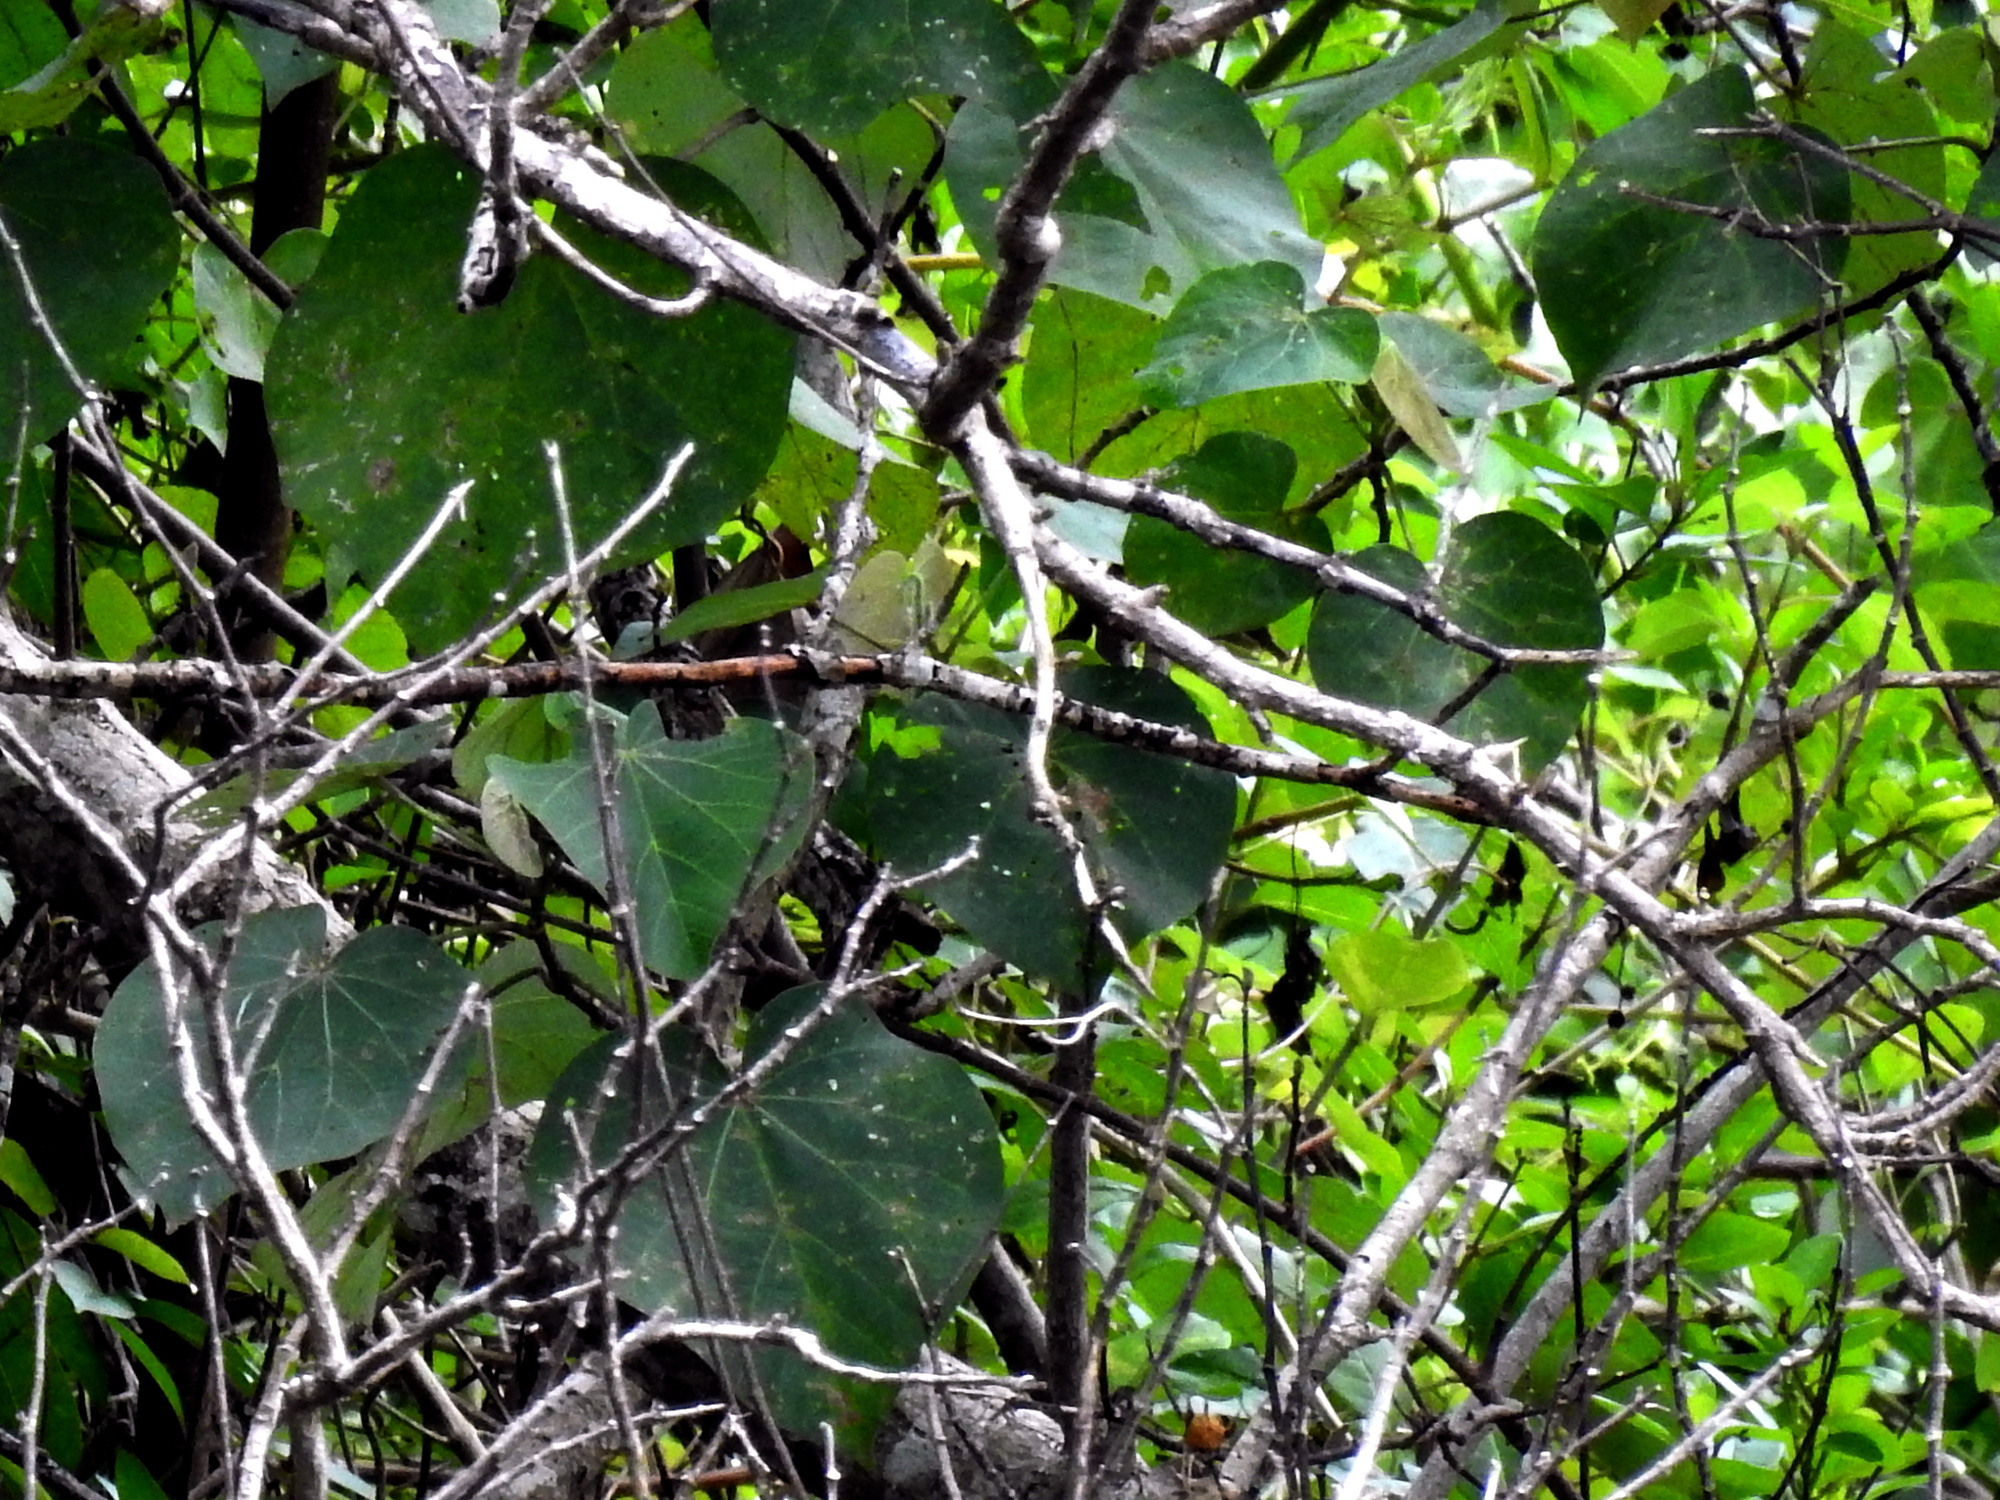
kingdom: Plantae
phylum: Tracheophyta
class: Magnoliopsida
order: Malvales
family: Malvaceae
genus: Talipariti
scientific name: Talipariti tiliaceum
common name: Sea hibiscus
